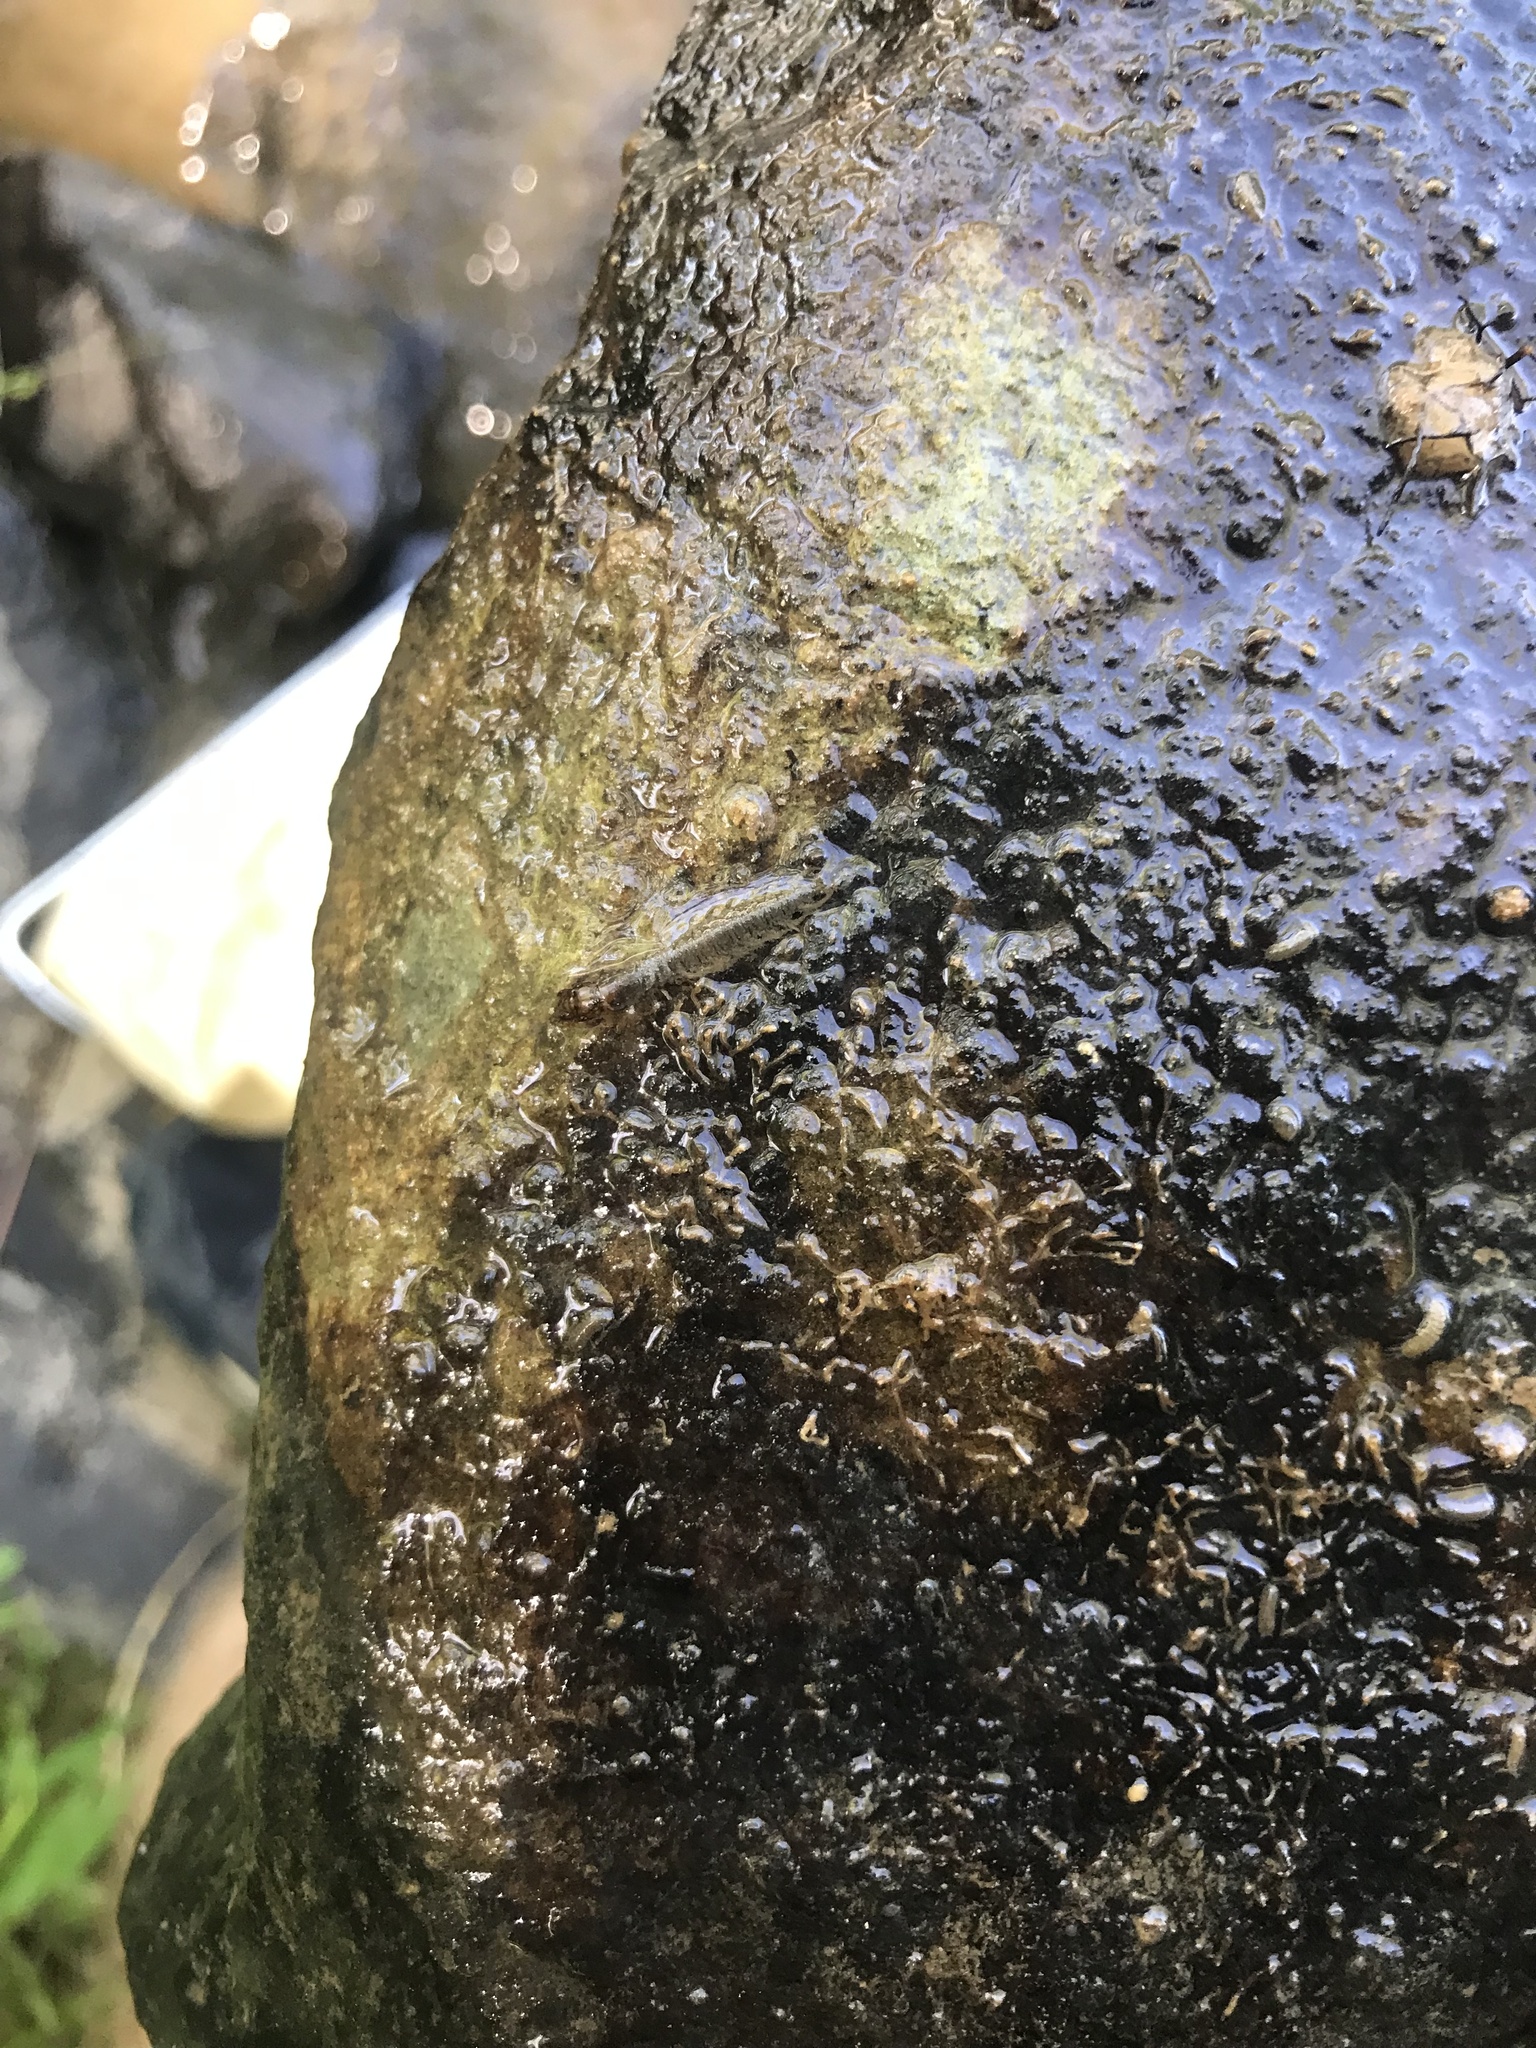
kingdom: Animalia
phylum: Arthropoda
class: Insecta
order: Megaloptera
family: Corydalidae
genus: Corydalus
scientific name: Corydalus cornutus
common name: Dobsonfly
